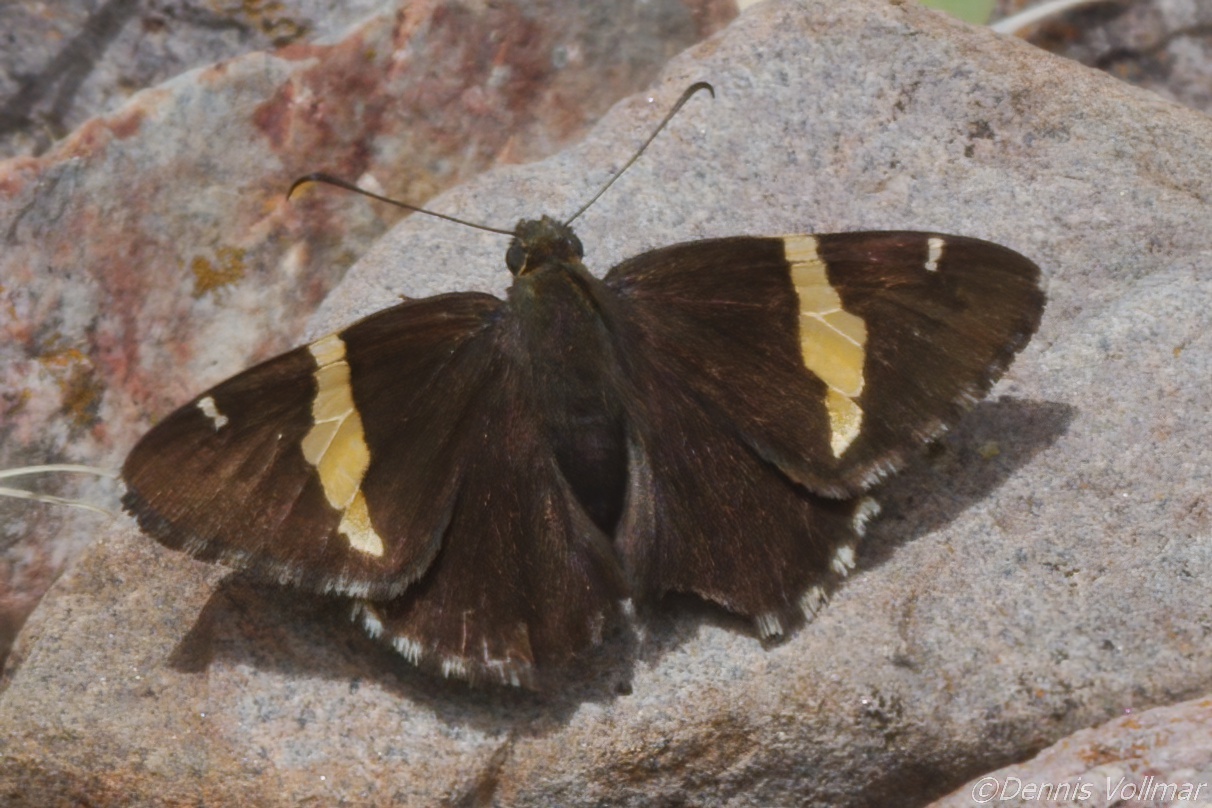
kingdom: Animalia
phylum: Arthropoda
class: Arachnida
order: Scorpiones
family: Bothriuridae
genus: Telegonus
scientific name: Telegonus cellus
